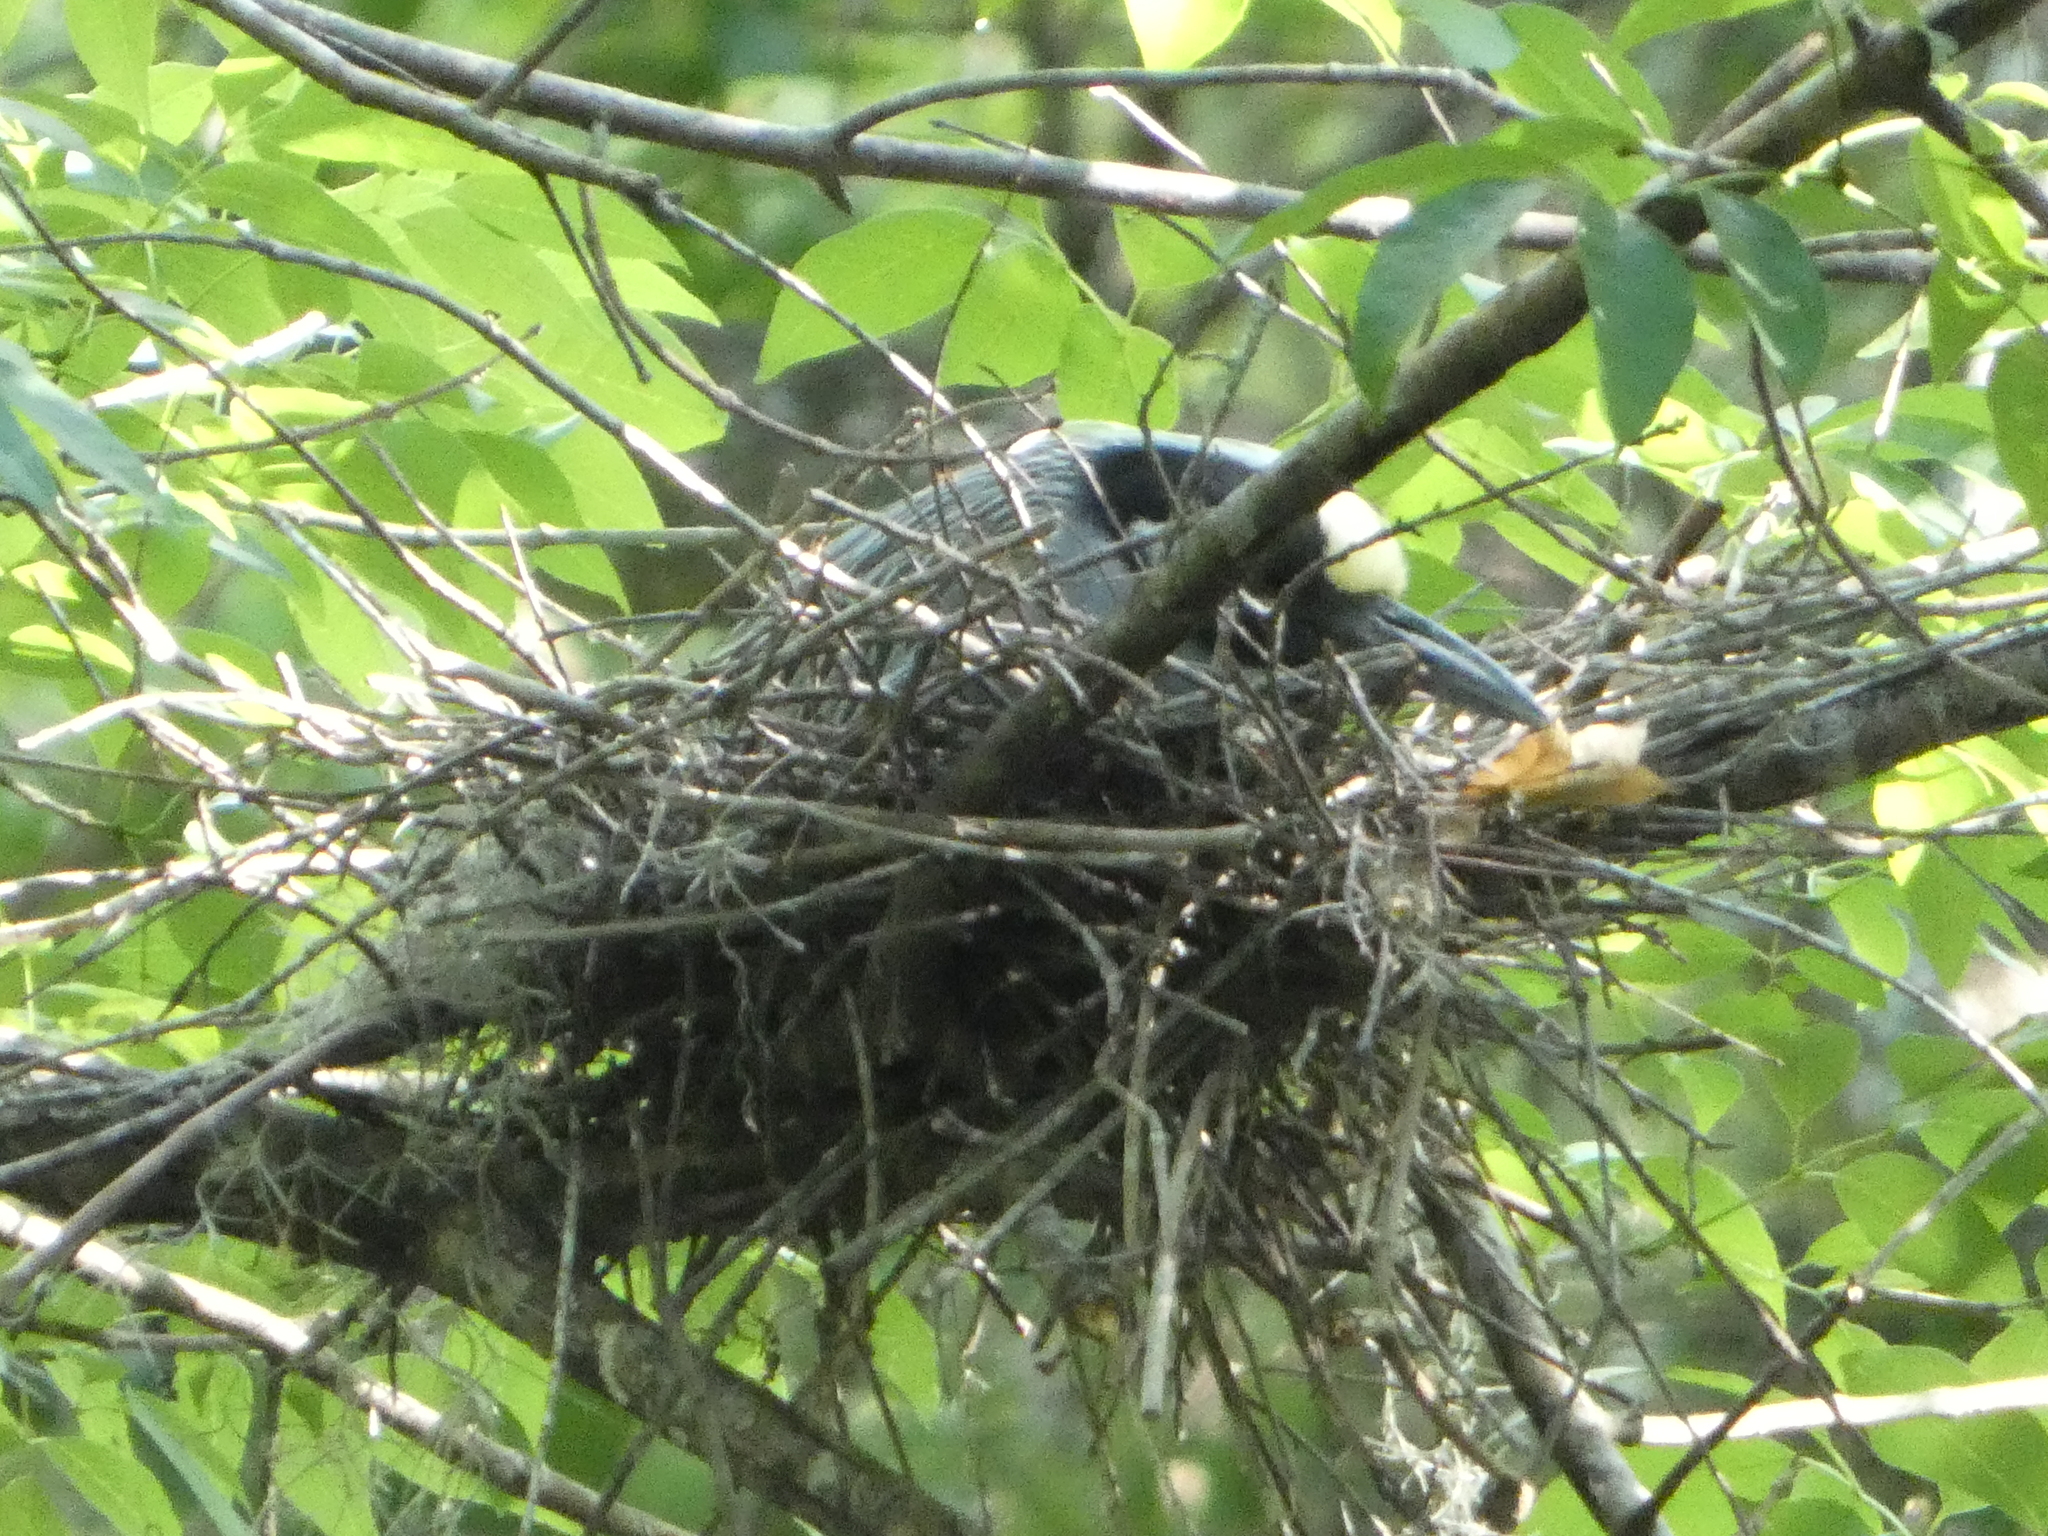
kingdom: Animalia
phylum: Chordata
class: Aves
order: Pelecaniformes
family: Ardeidae
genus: Nyctanassa
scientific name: Nyctanassa violacea
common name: Yellow-crowned night heron
